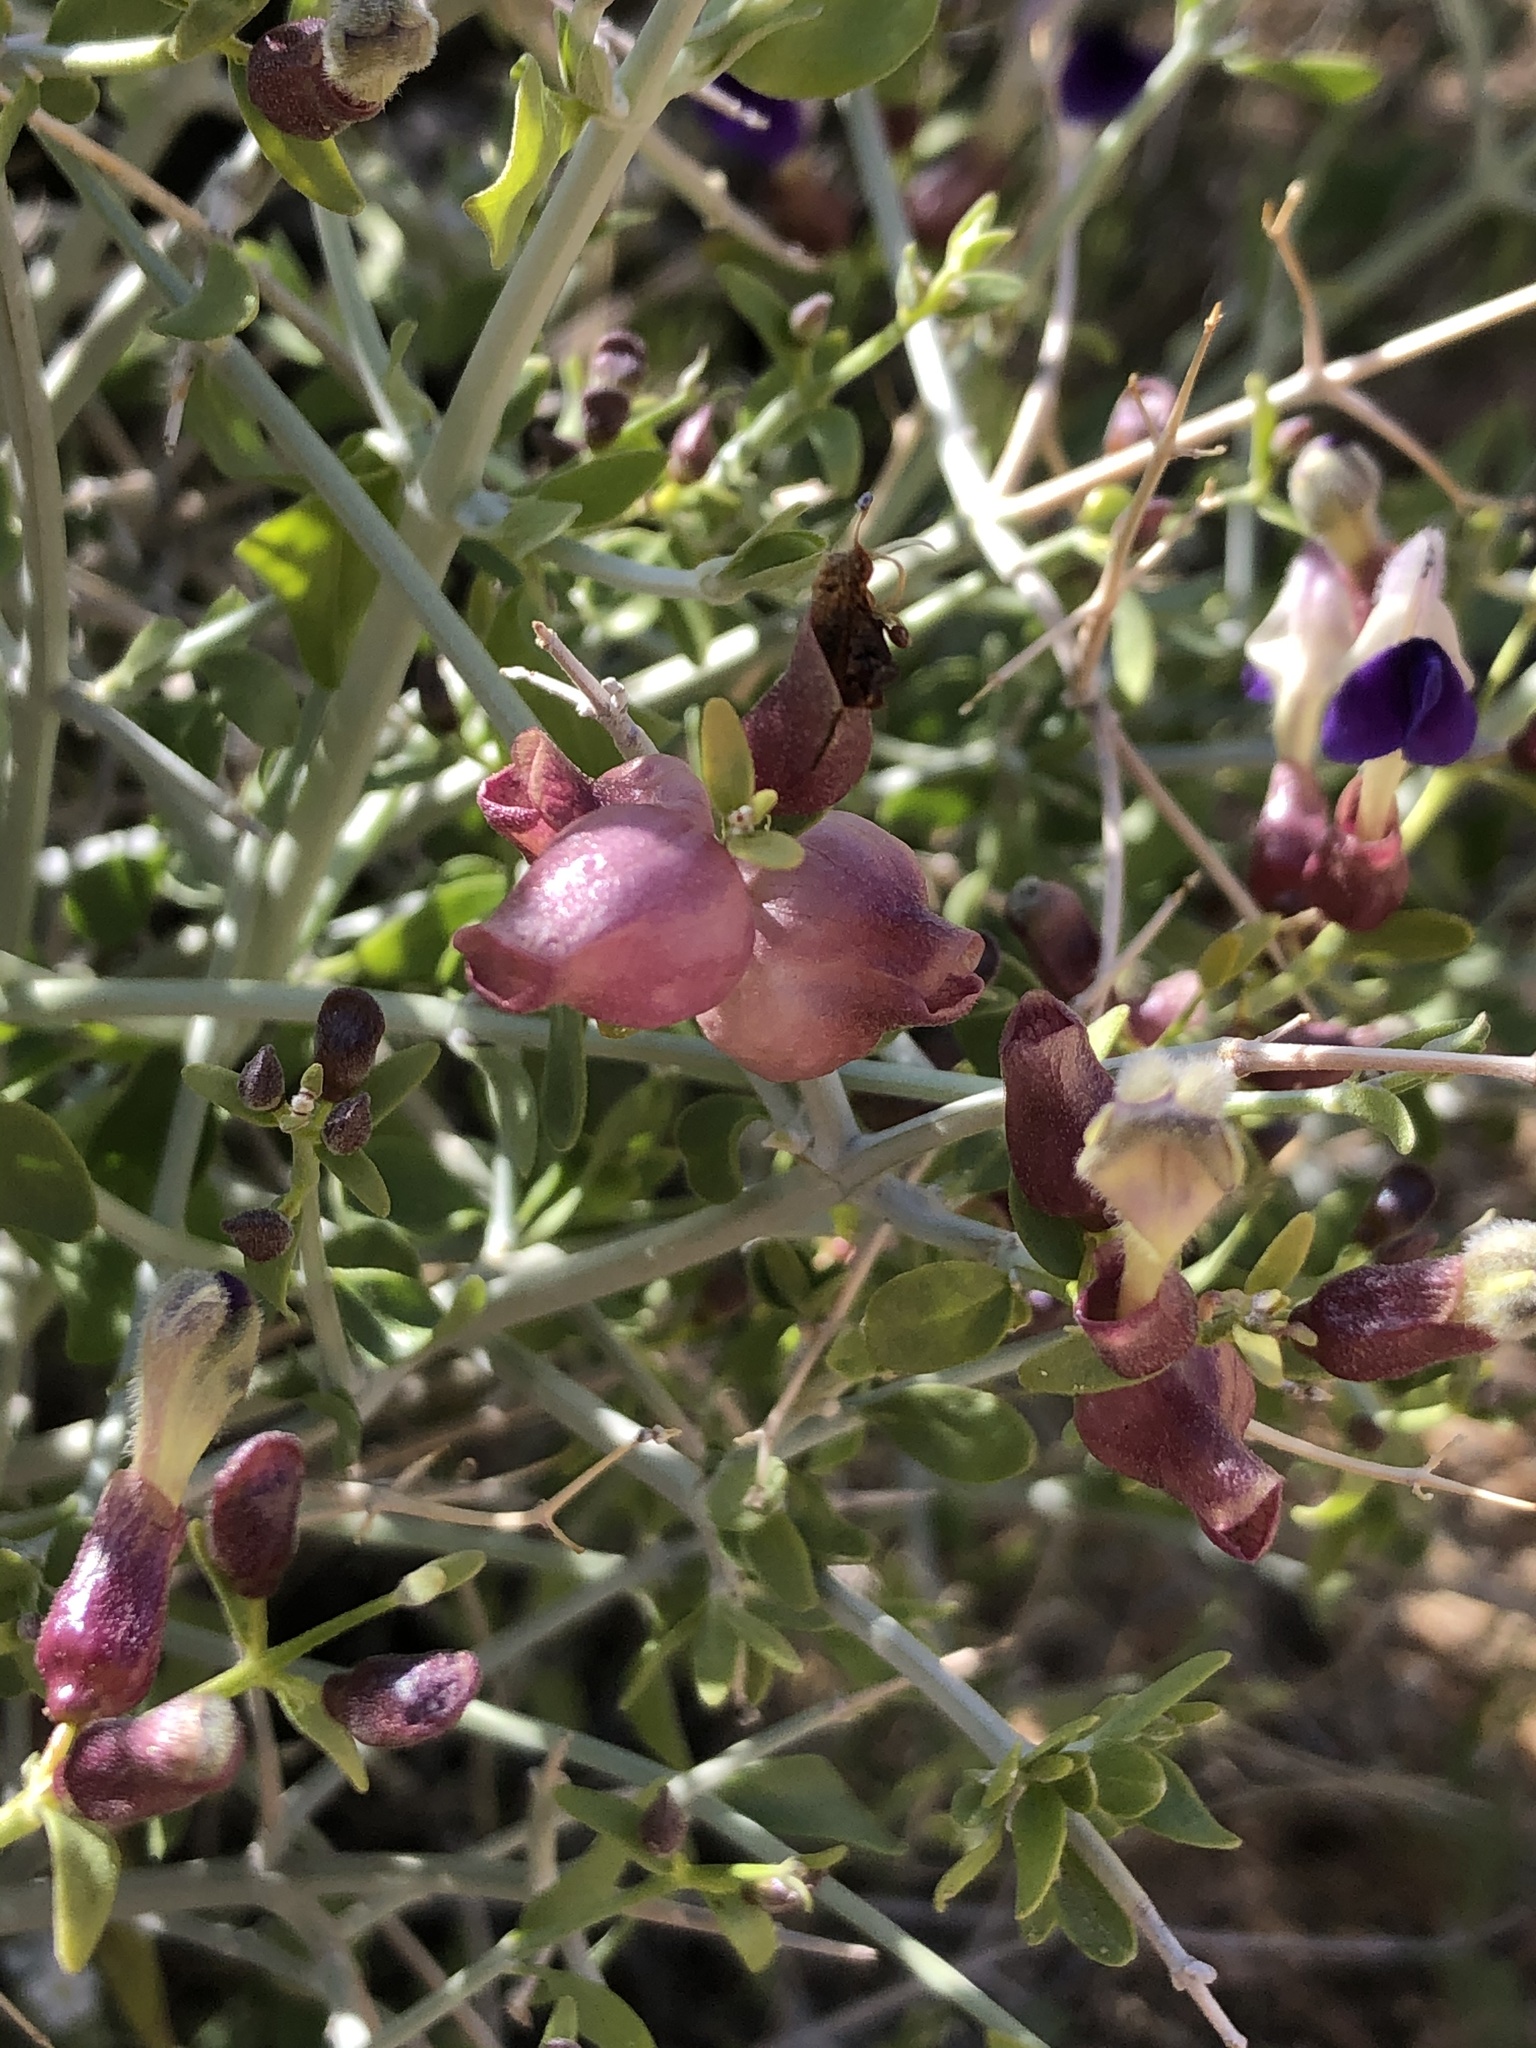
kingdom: Plantae
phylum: Tracheophyta
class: Magnoliopsida
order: Lamiales
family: Lamiaceae
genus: Scutellaria
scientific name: Scutellaria mexicana
